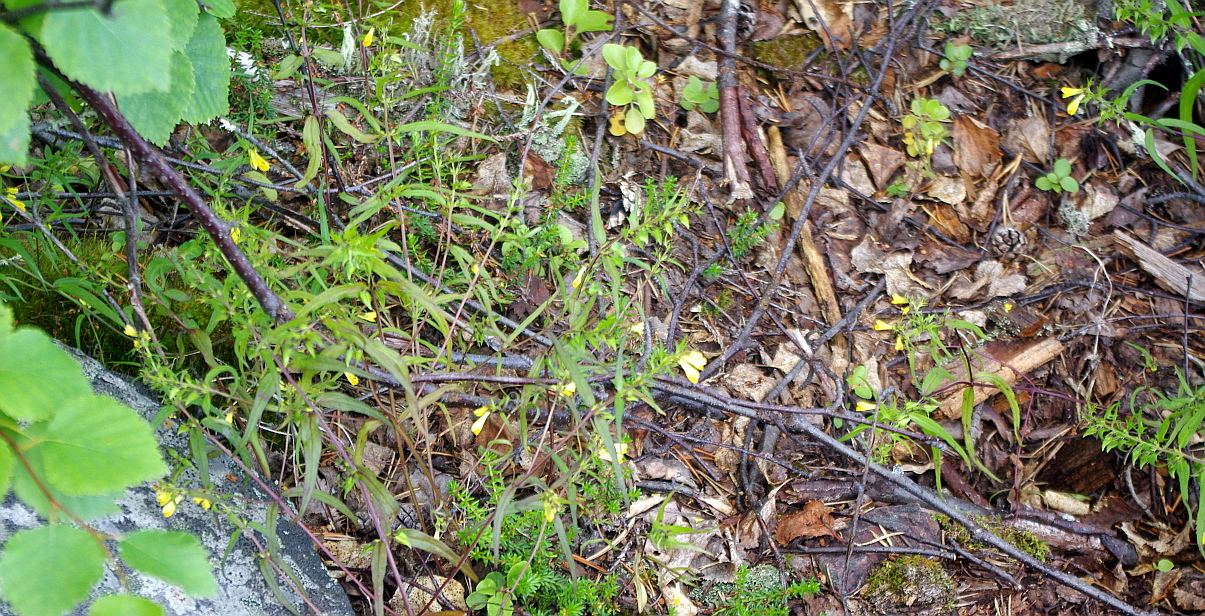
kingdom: Plantae
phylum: Tracheophyta
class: Magnoliopsida
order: Lamiales
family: Orobanchaceae
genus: Melampyrum
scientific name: Melampyrum pratense
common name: Common cow-wheat
